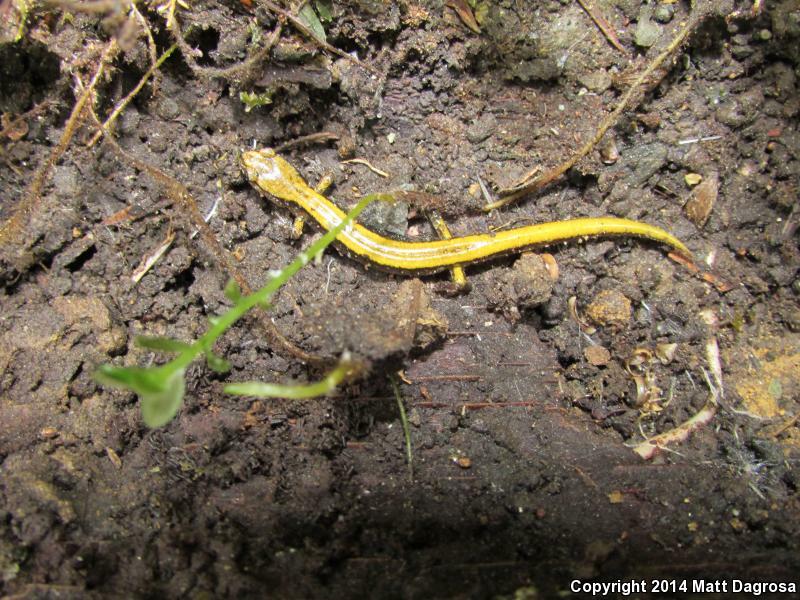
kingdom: Animalia
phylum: Chordata
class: Amphibia
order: Caudata
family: Plethodontidae
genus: Plethodon
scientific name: Plethodon vehiculum
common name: Western red-backed salamander
